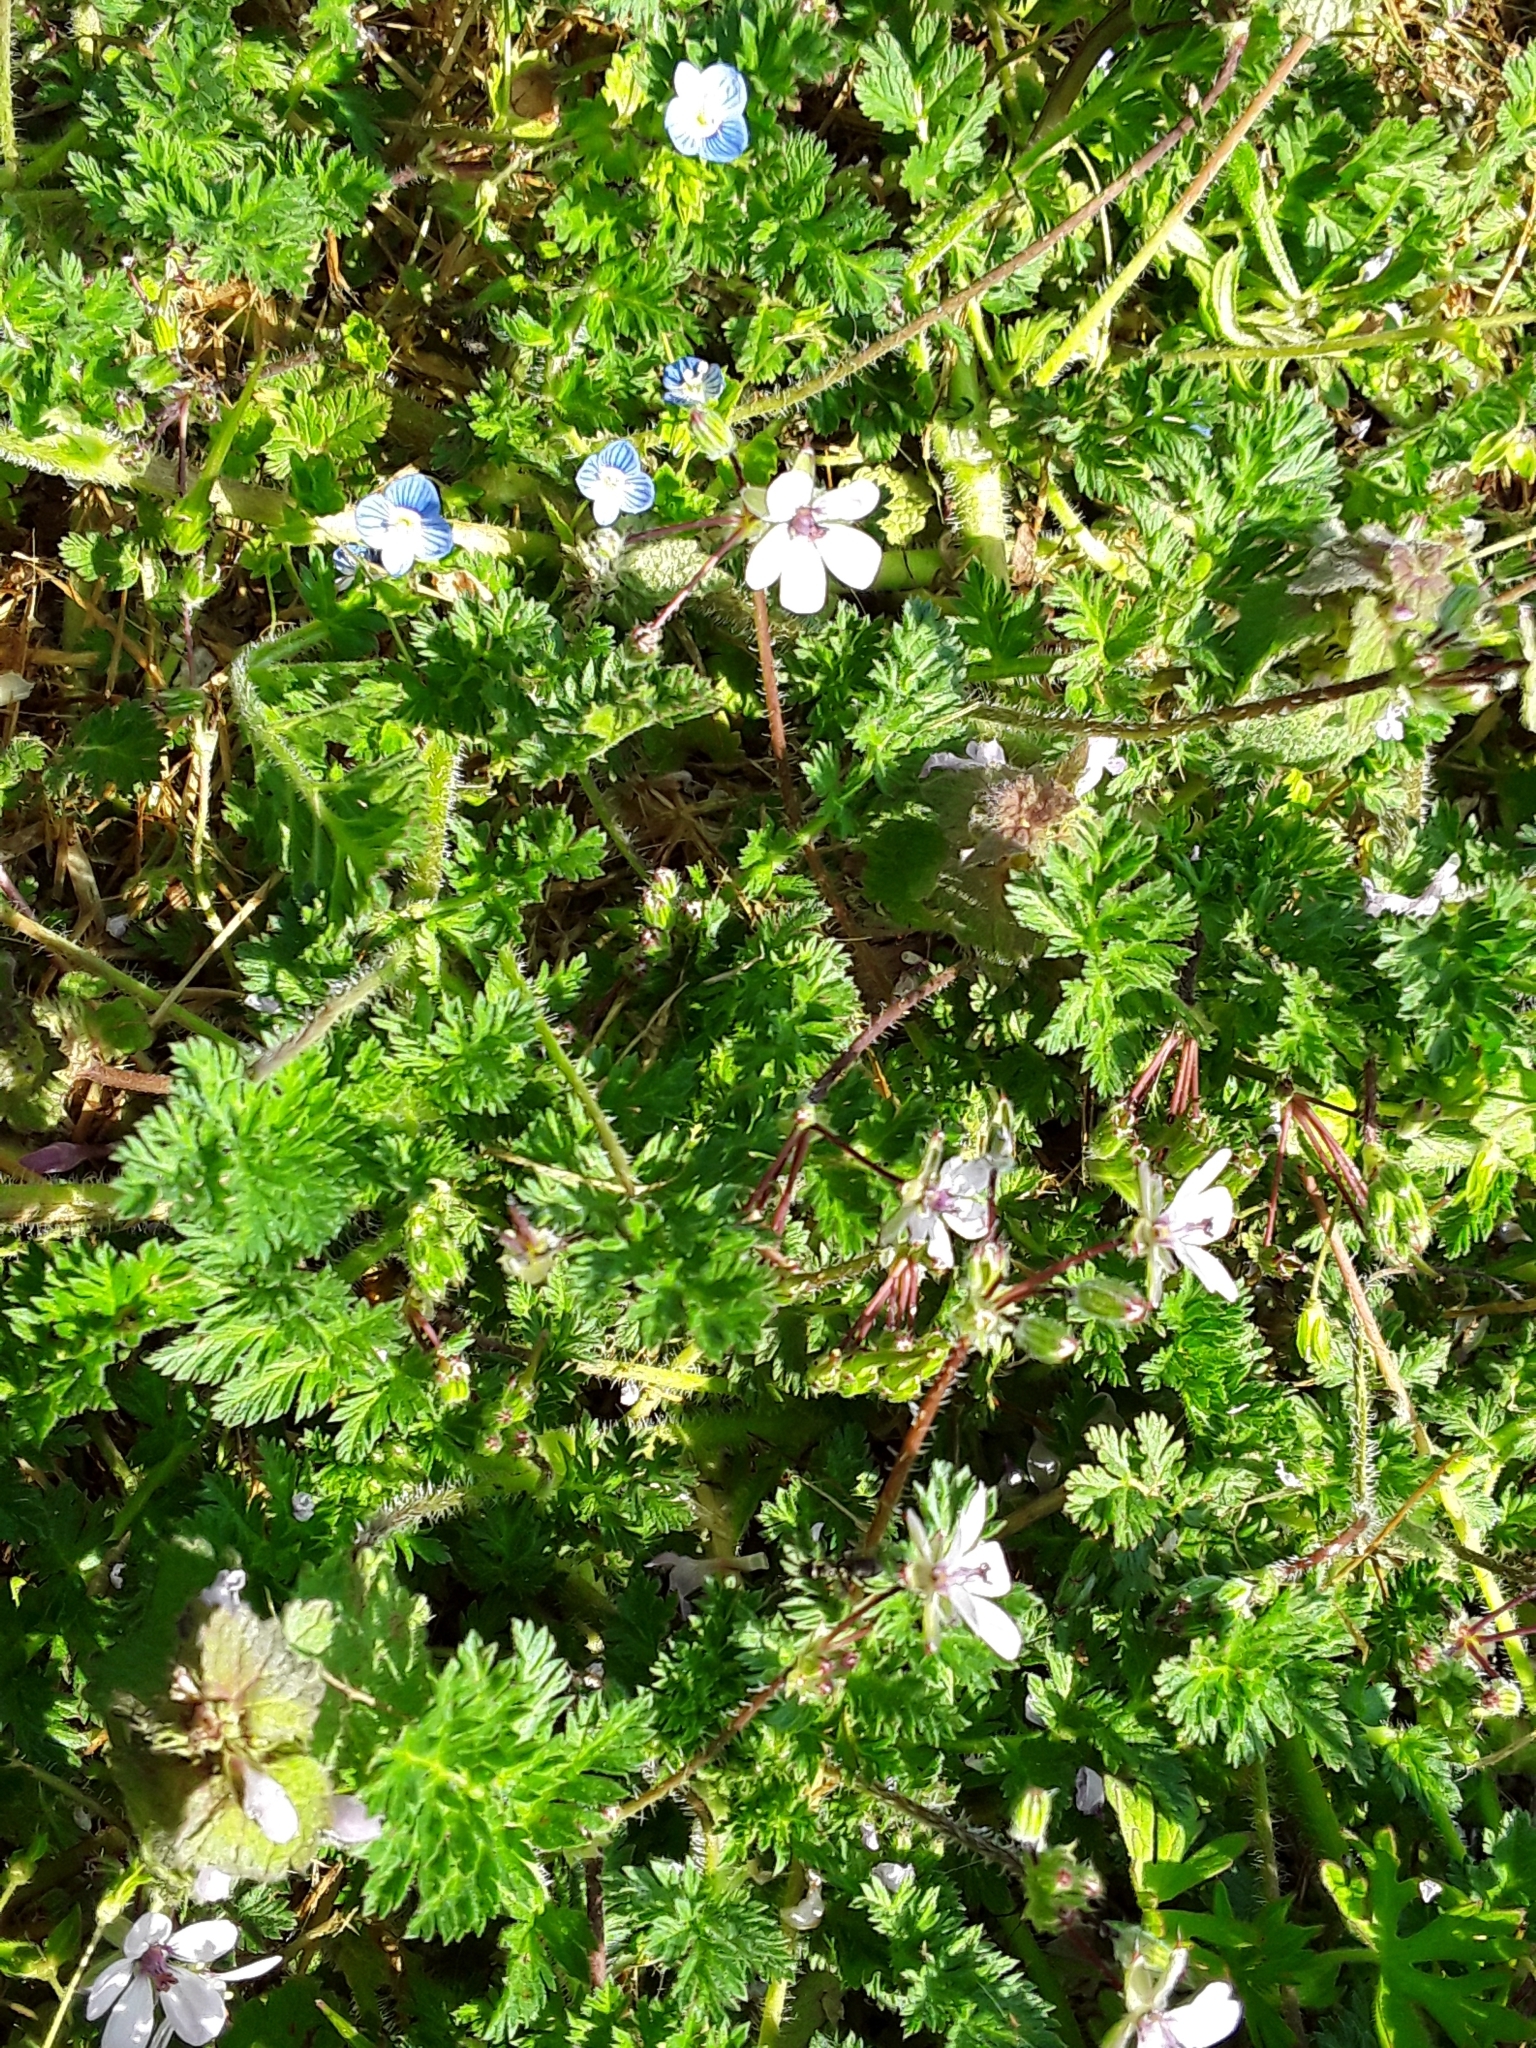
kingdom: Plantae
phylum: Tracheophyta
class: Magnoliopsida
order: Geraniales
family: Geraniaceae
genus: Erodium
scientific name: Erodium cicutarium
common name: Common stork's-bill
